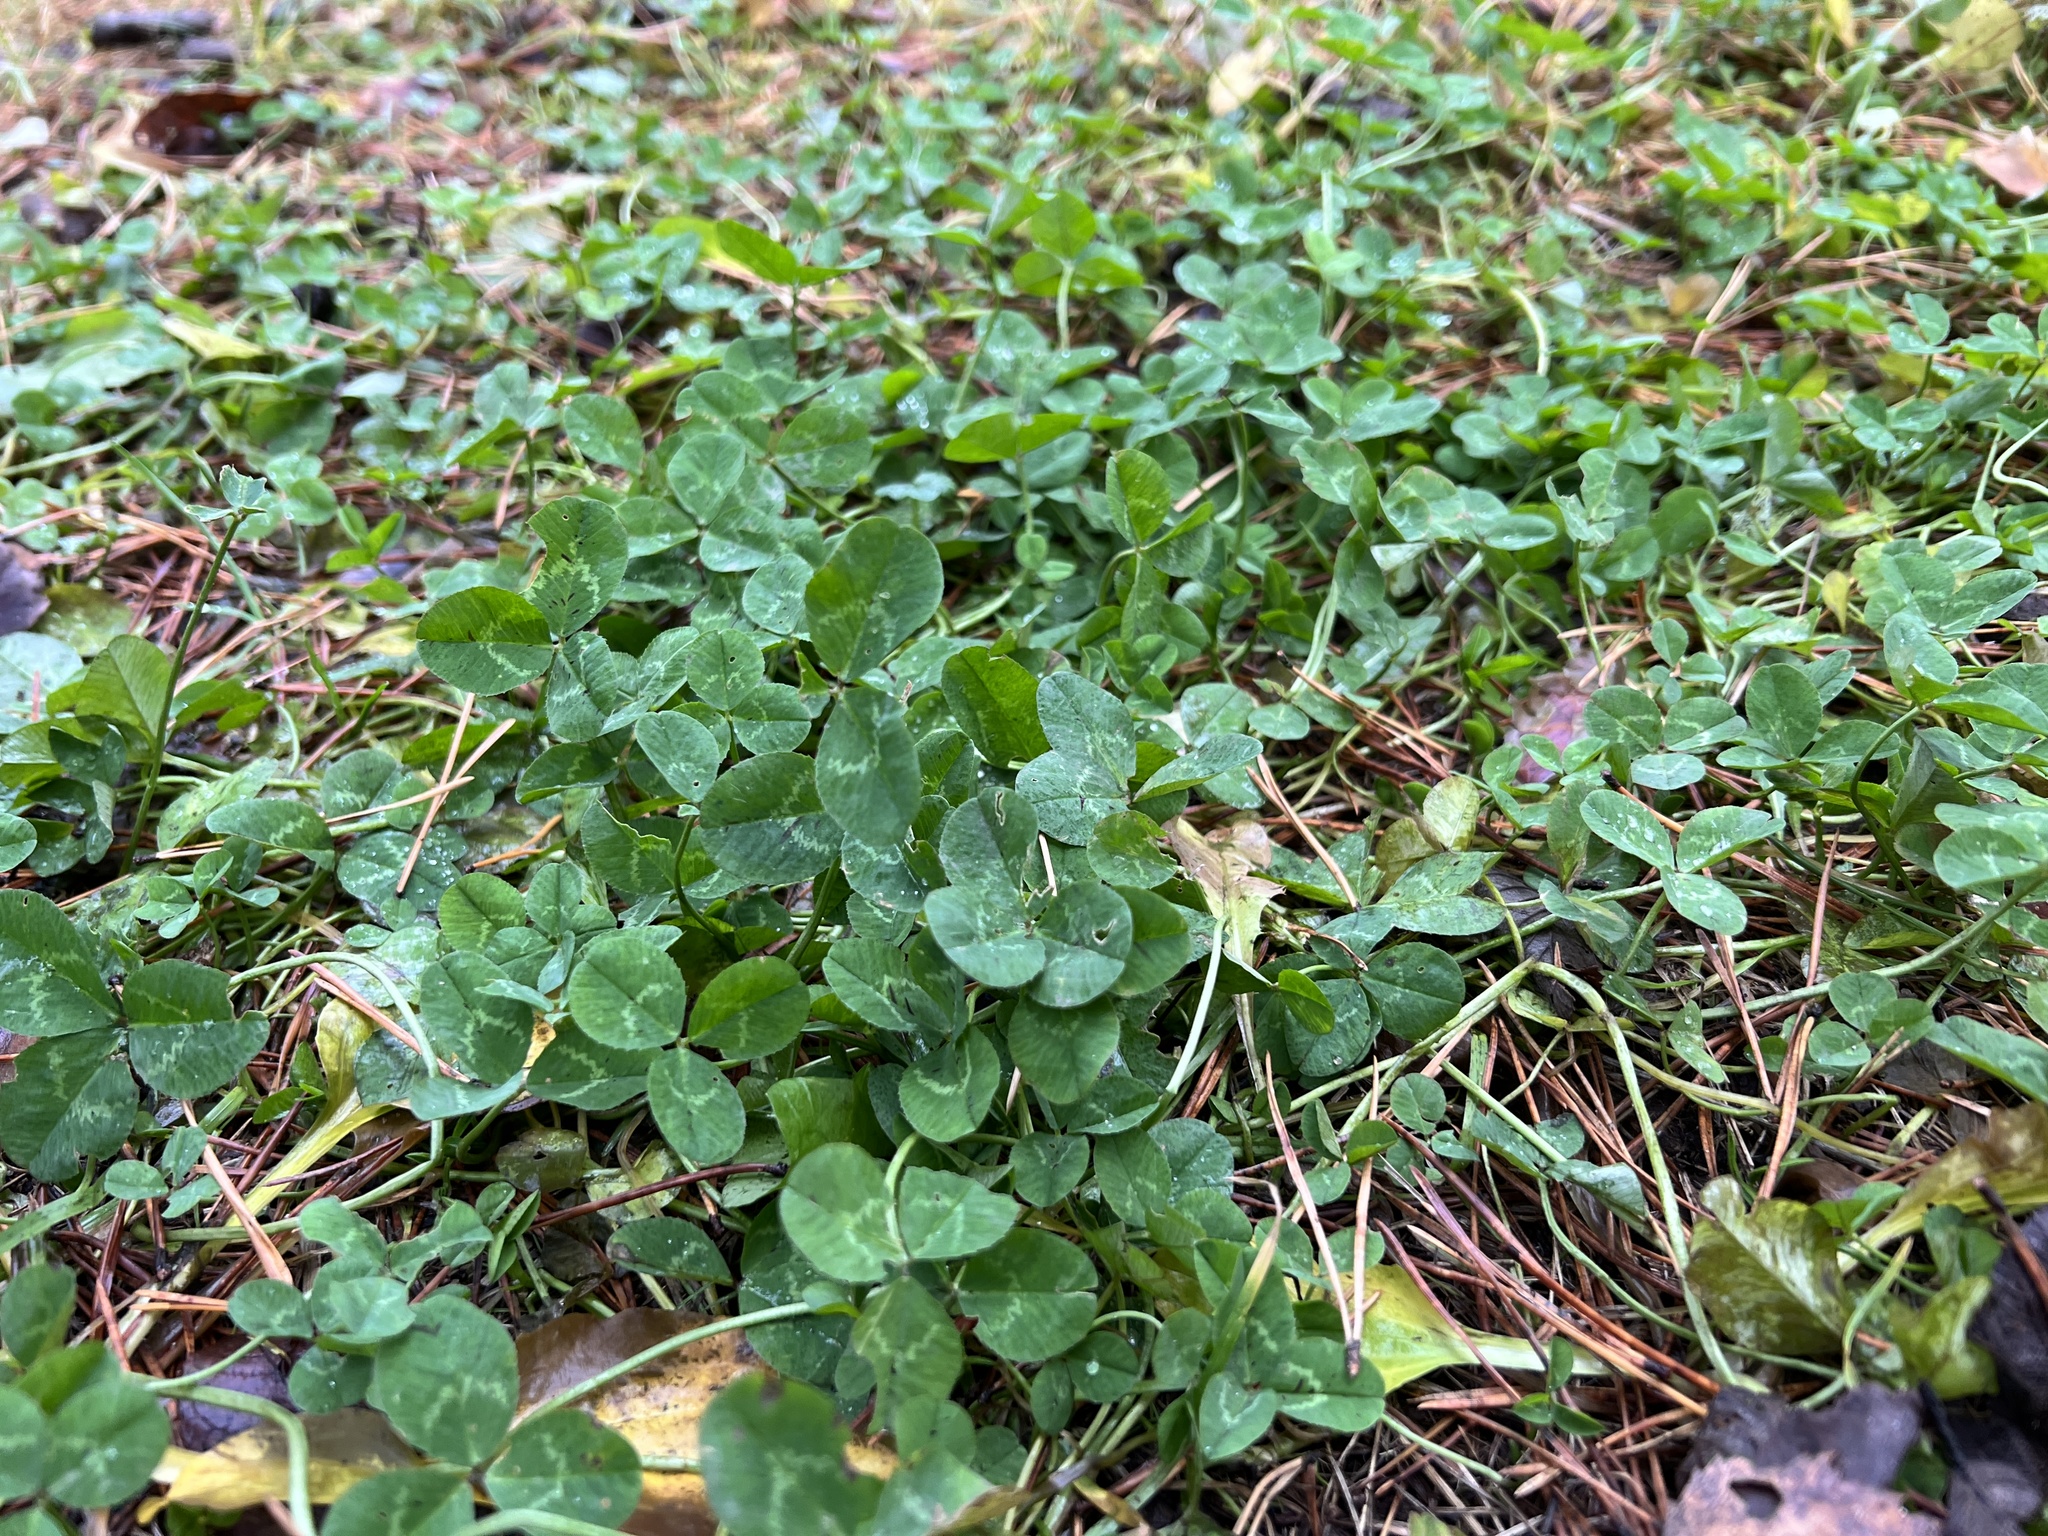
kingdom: Plantae
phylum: Tracheophyta
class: Magnoliopsida
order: Fabales
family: Fabaceae
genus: Trifolium
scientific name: Trifolium repens
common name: White clover
